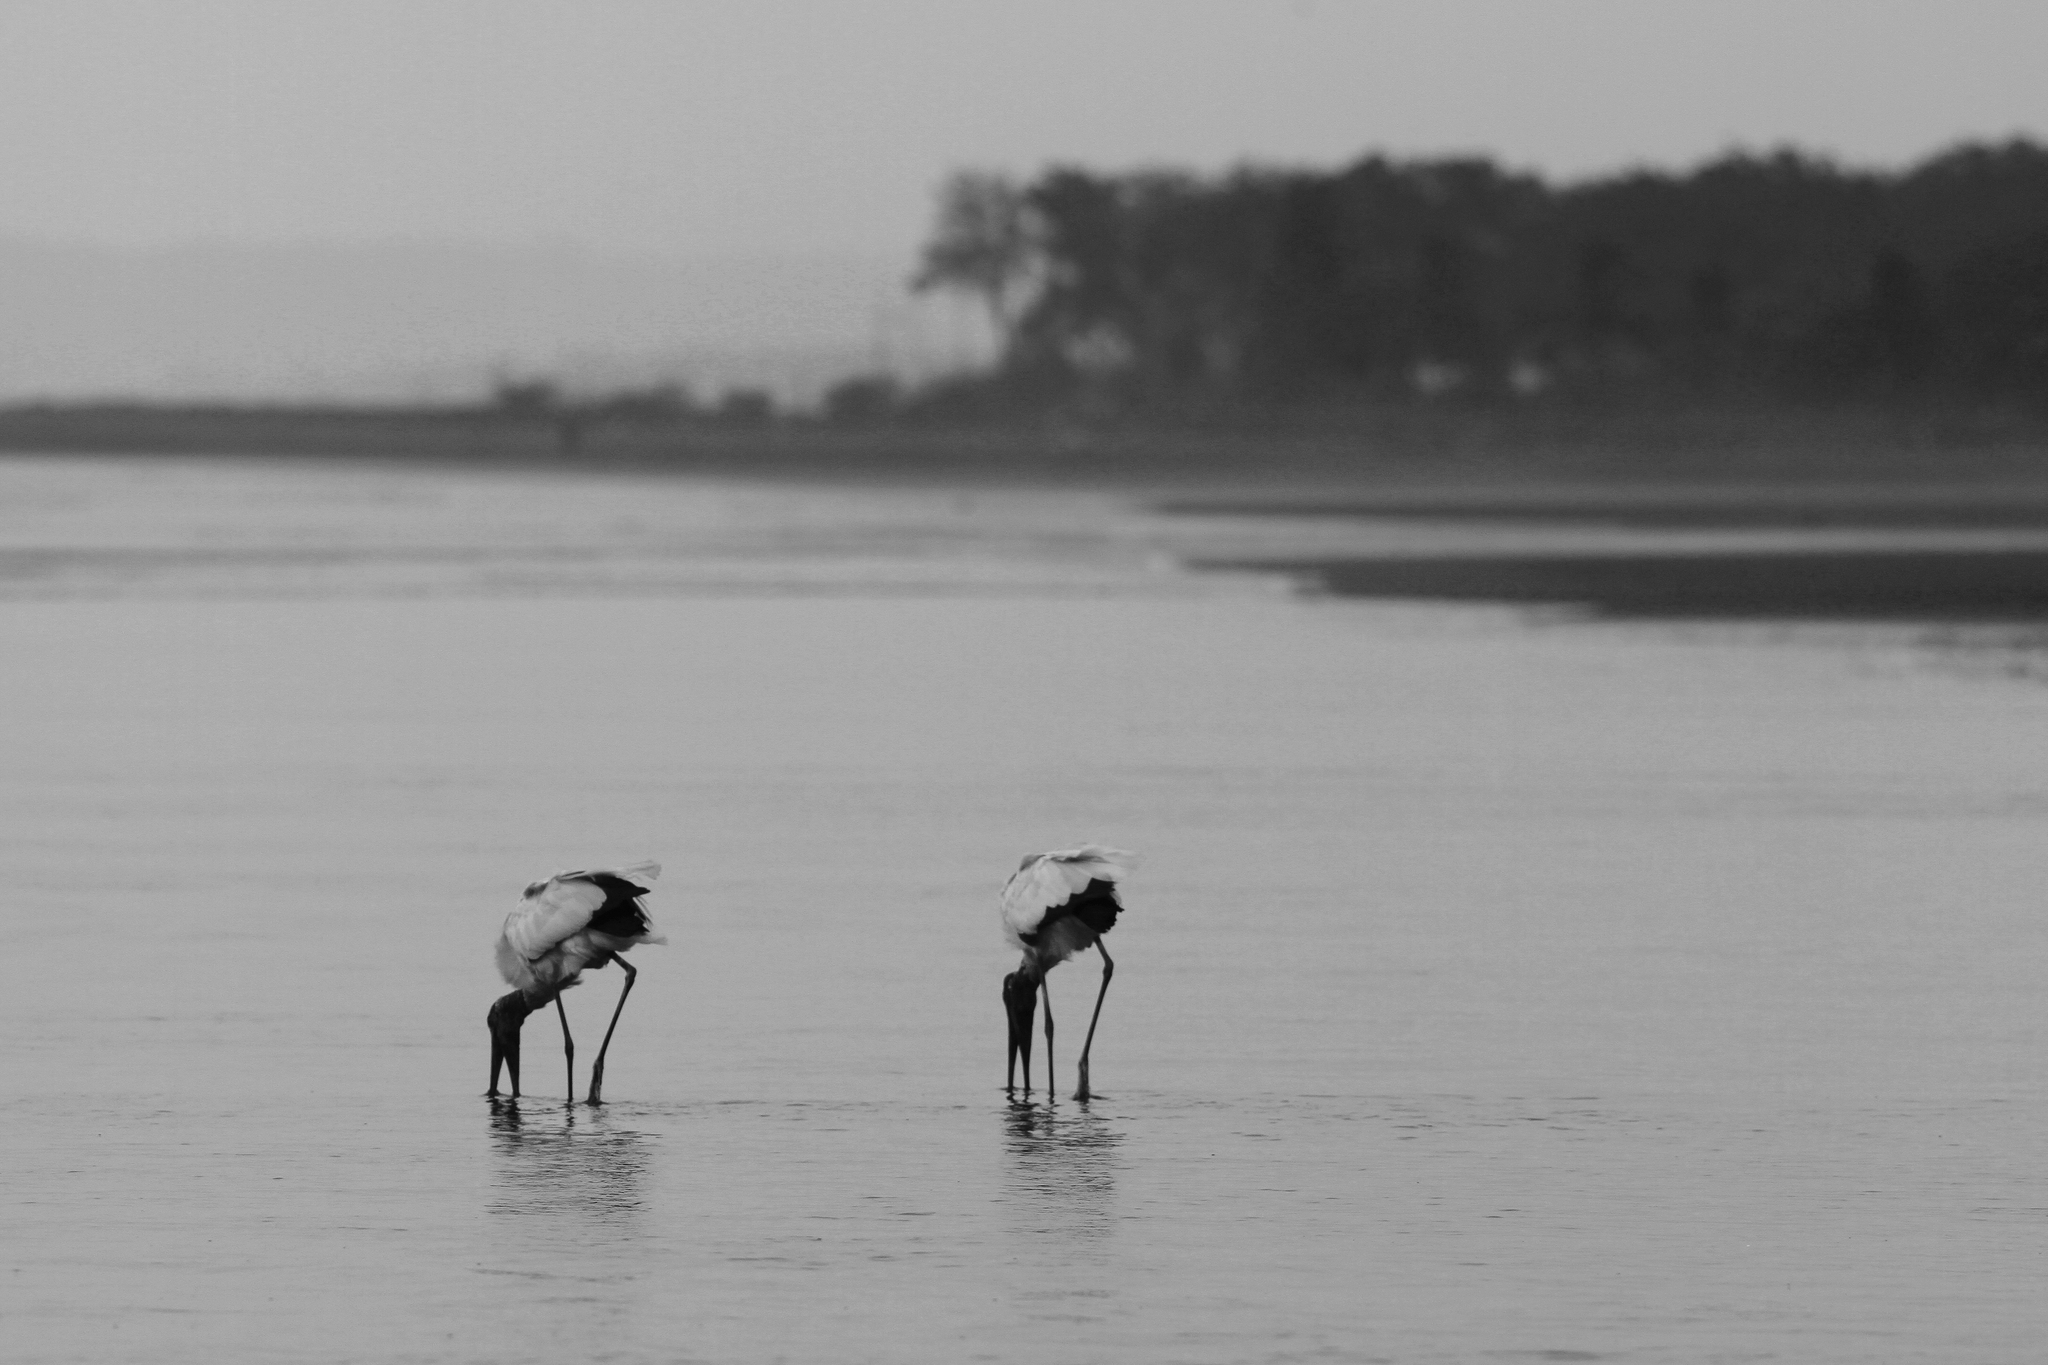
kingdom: Animalia
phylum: Chordata
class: Aves
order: Ciconiiformes
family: Ciconiidae
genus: Mycteria
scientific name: Mycteria americana
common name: Wood stork
